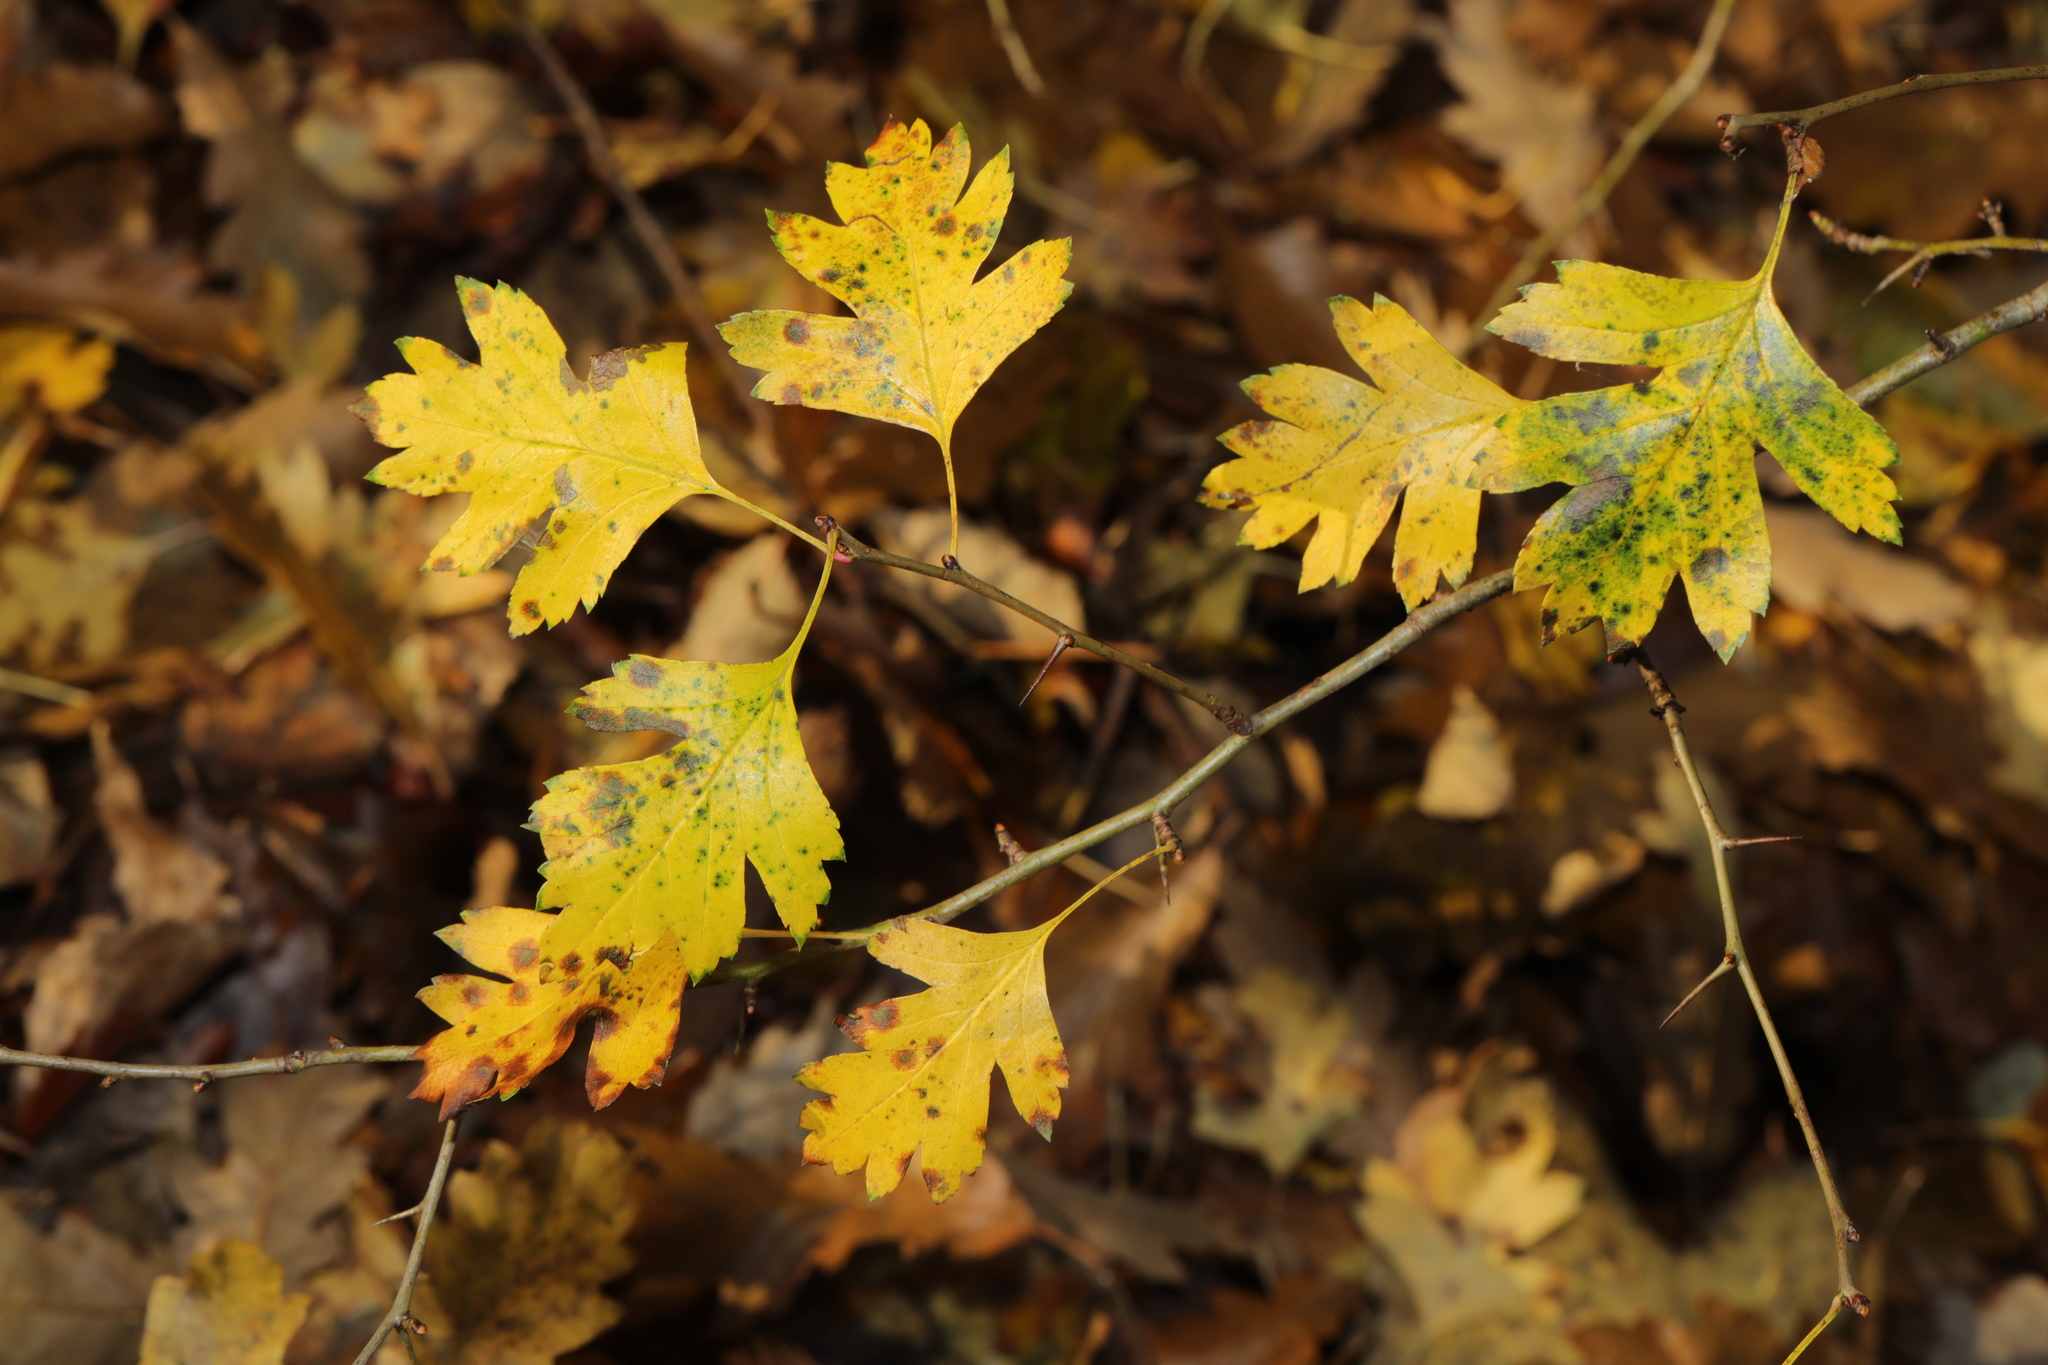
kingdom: Plantae
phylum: Tracheophyta
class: Magnoliopsida
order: Rosales
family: Rosaceae
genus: Crataegus
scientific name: Crataegus monogyna
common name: Hawthorn
